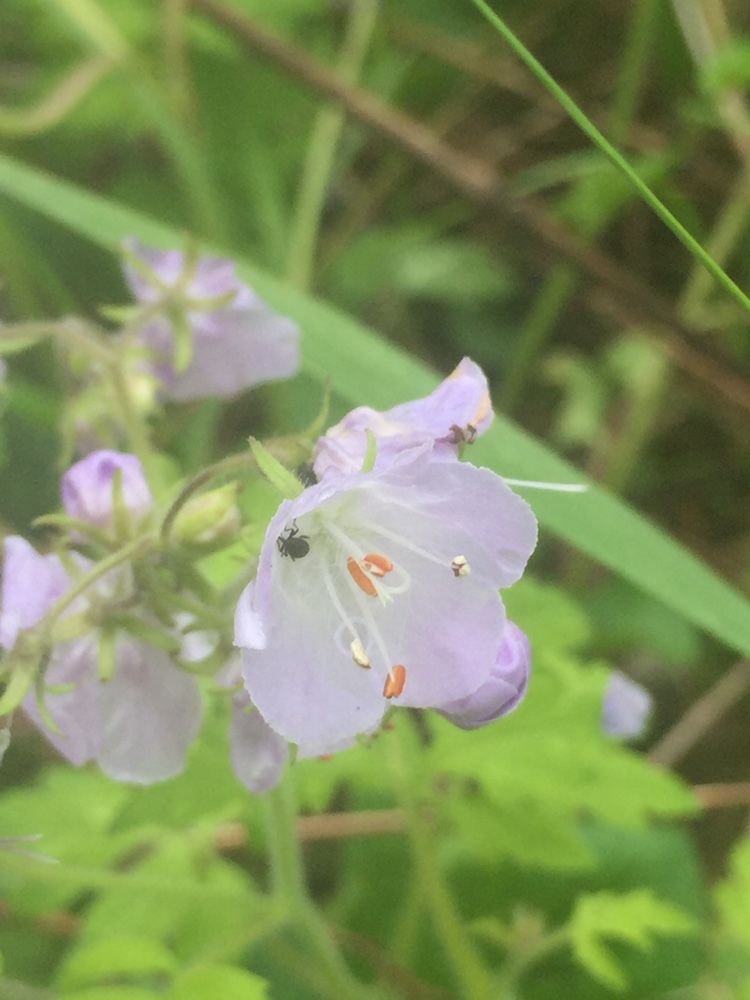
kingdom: Plantae
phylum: Tracheophyta
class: Magnoliopsida
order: Boraginales
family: Hydrophyllaceae
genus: Phacelia
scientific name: Phacelia bipinnatifida
